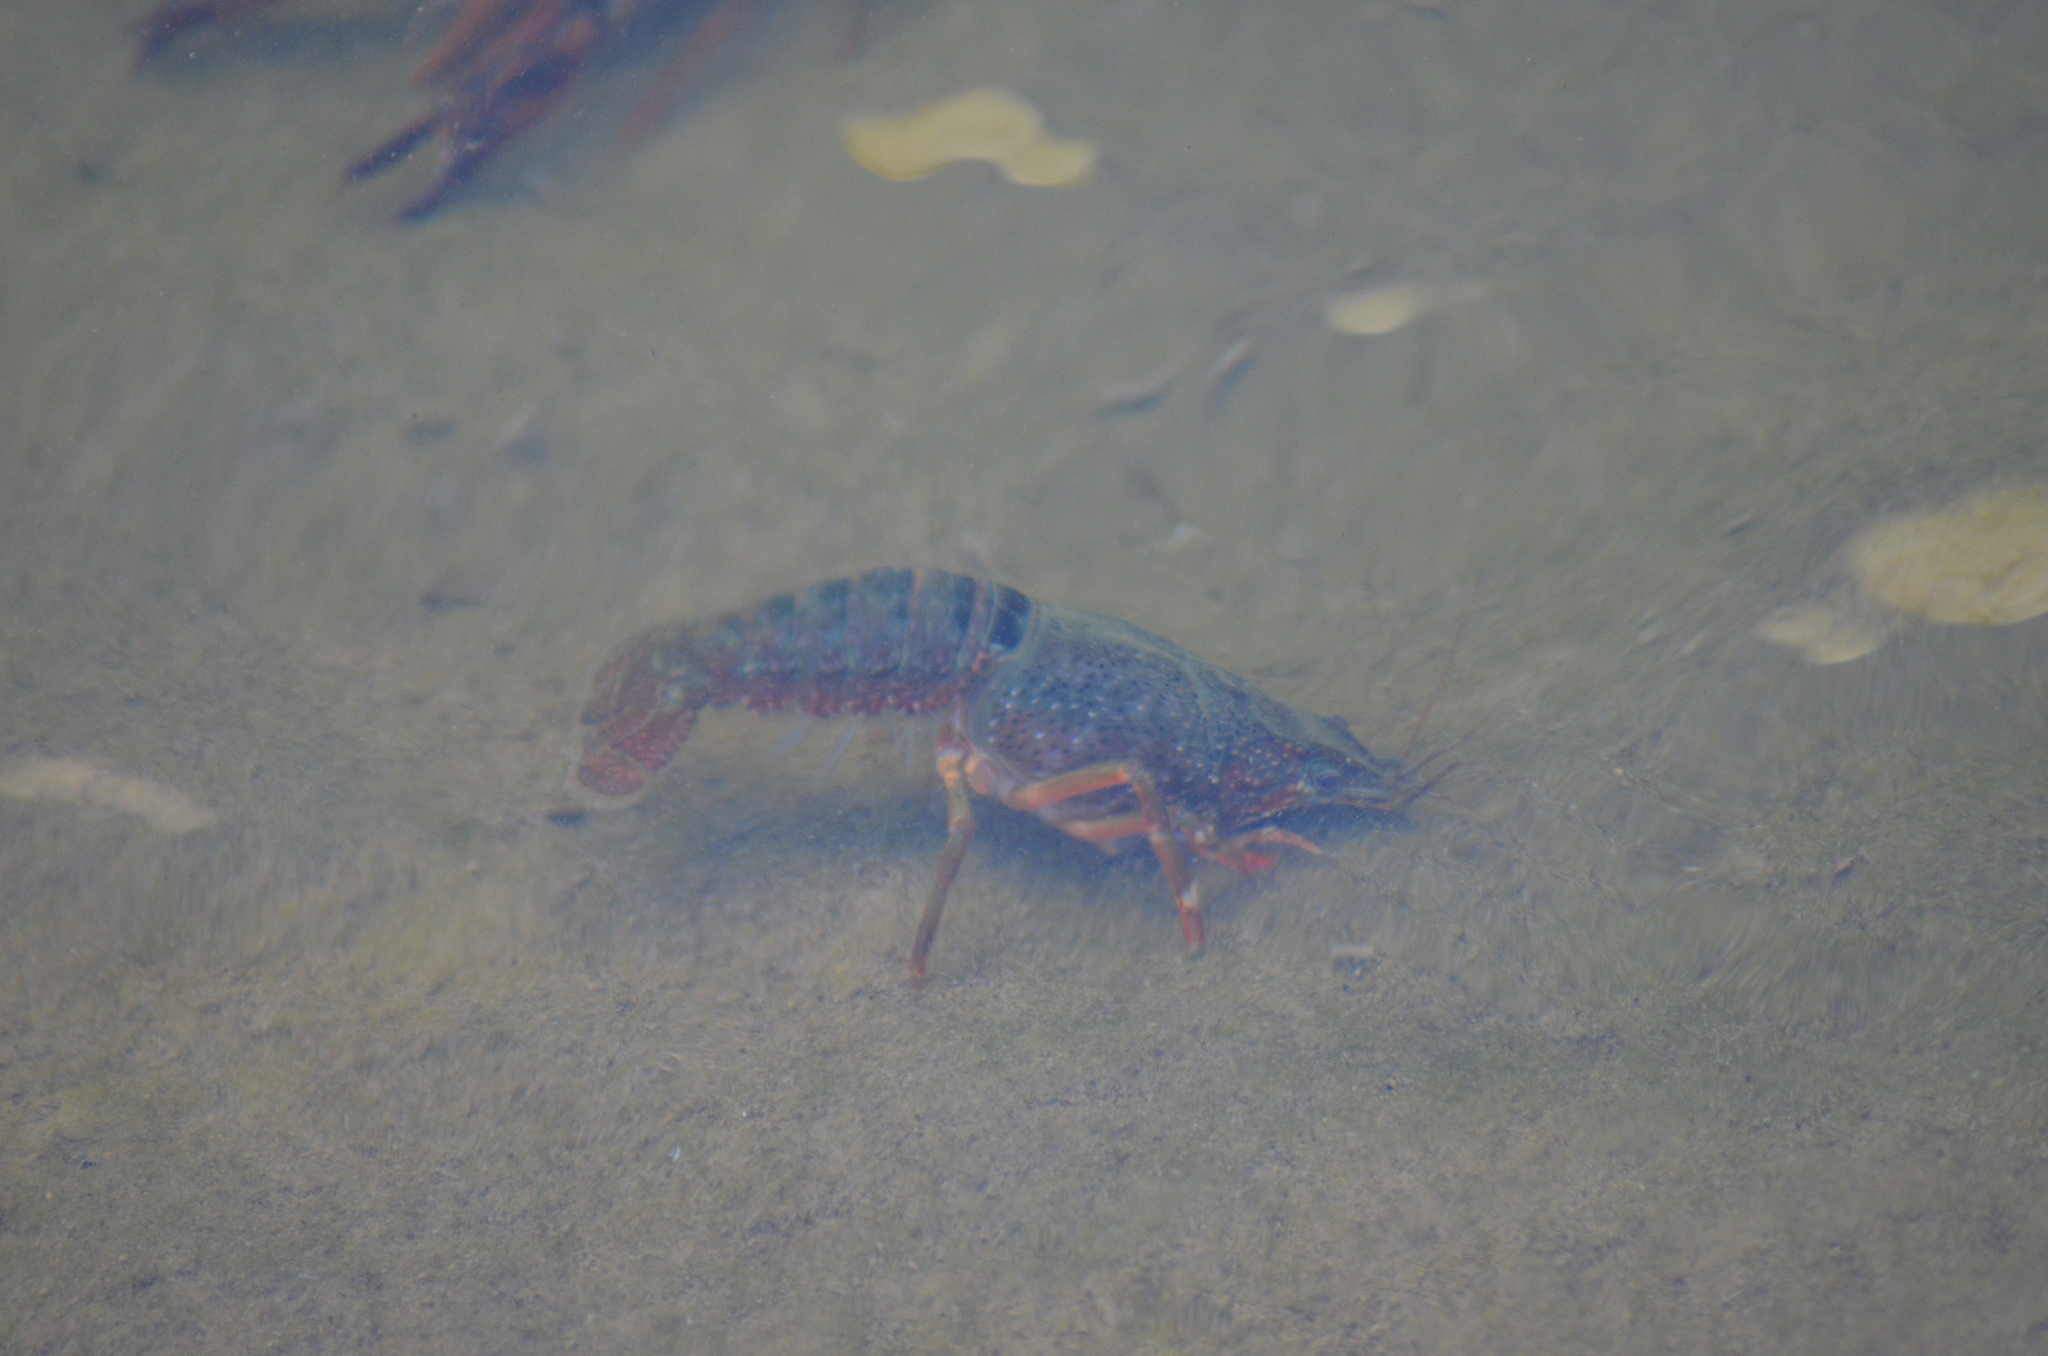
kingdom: Animalia
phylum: Arthropoda
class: Malacostraca
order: Decapoda
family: Cambaridae
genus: Procambarus
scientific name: Procambarus clarkii
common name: Red swamp crayfish
